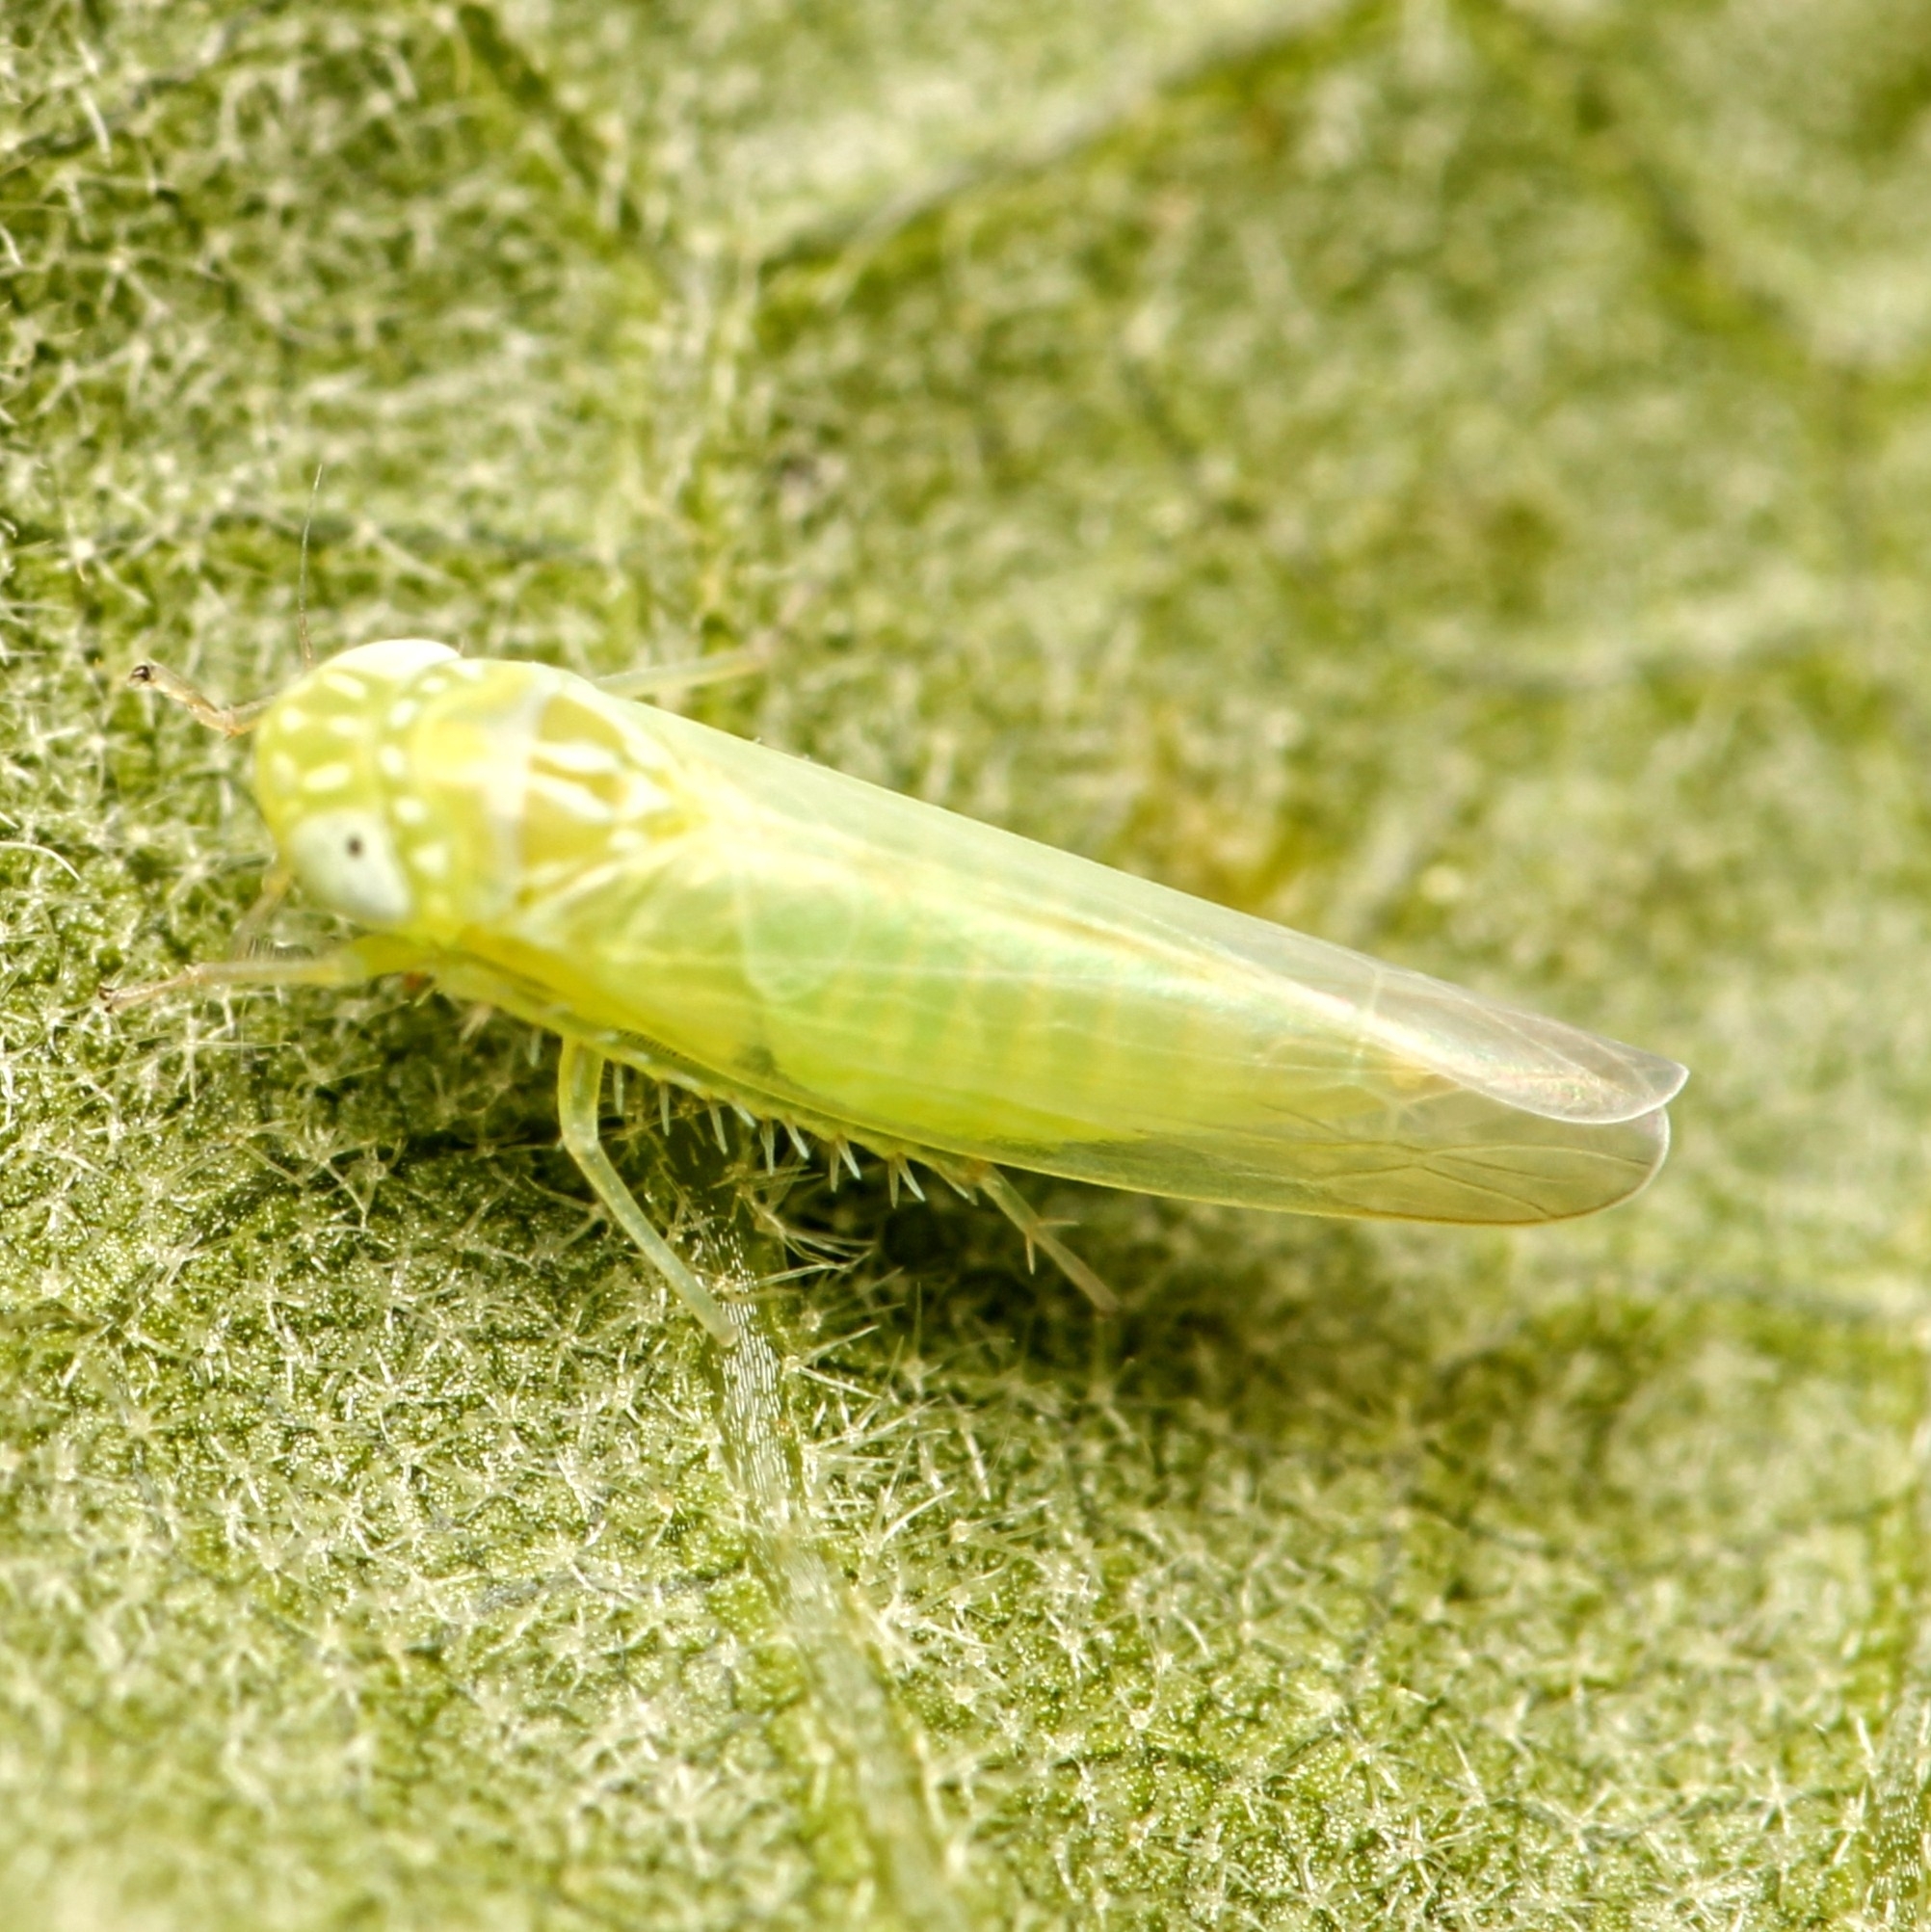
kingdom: Animalia
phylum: Arthropoda
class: Insecta
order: Hemiptera
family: Cicadellidae
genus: Empoasca
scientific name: Empoasca fabae
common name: Potato leafhopper
